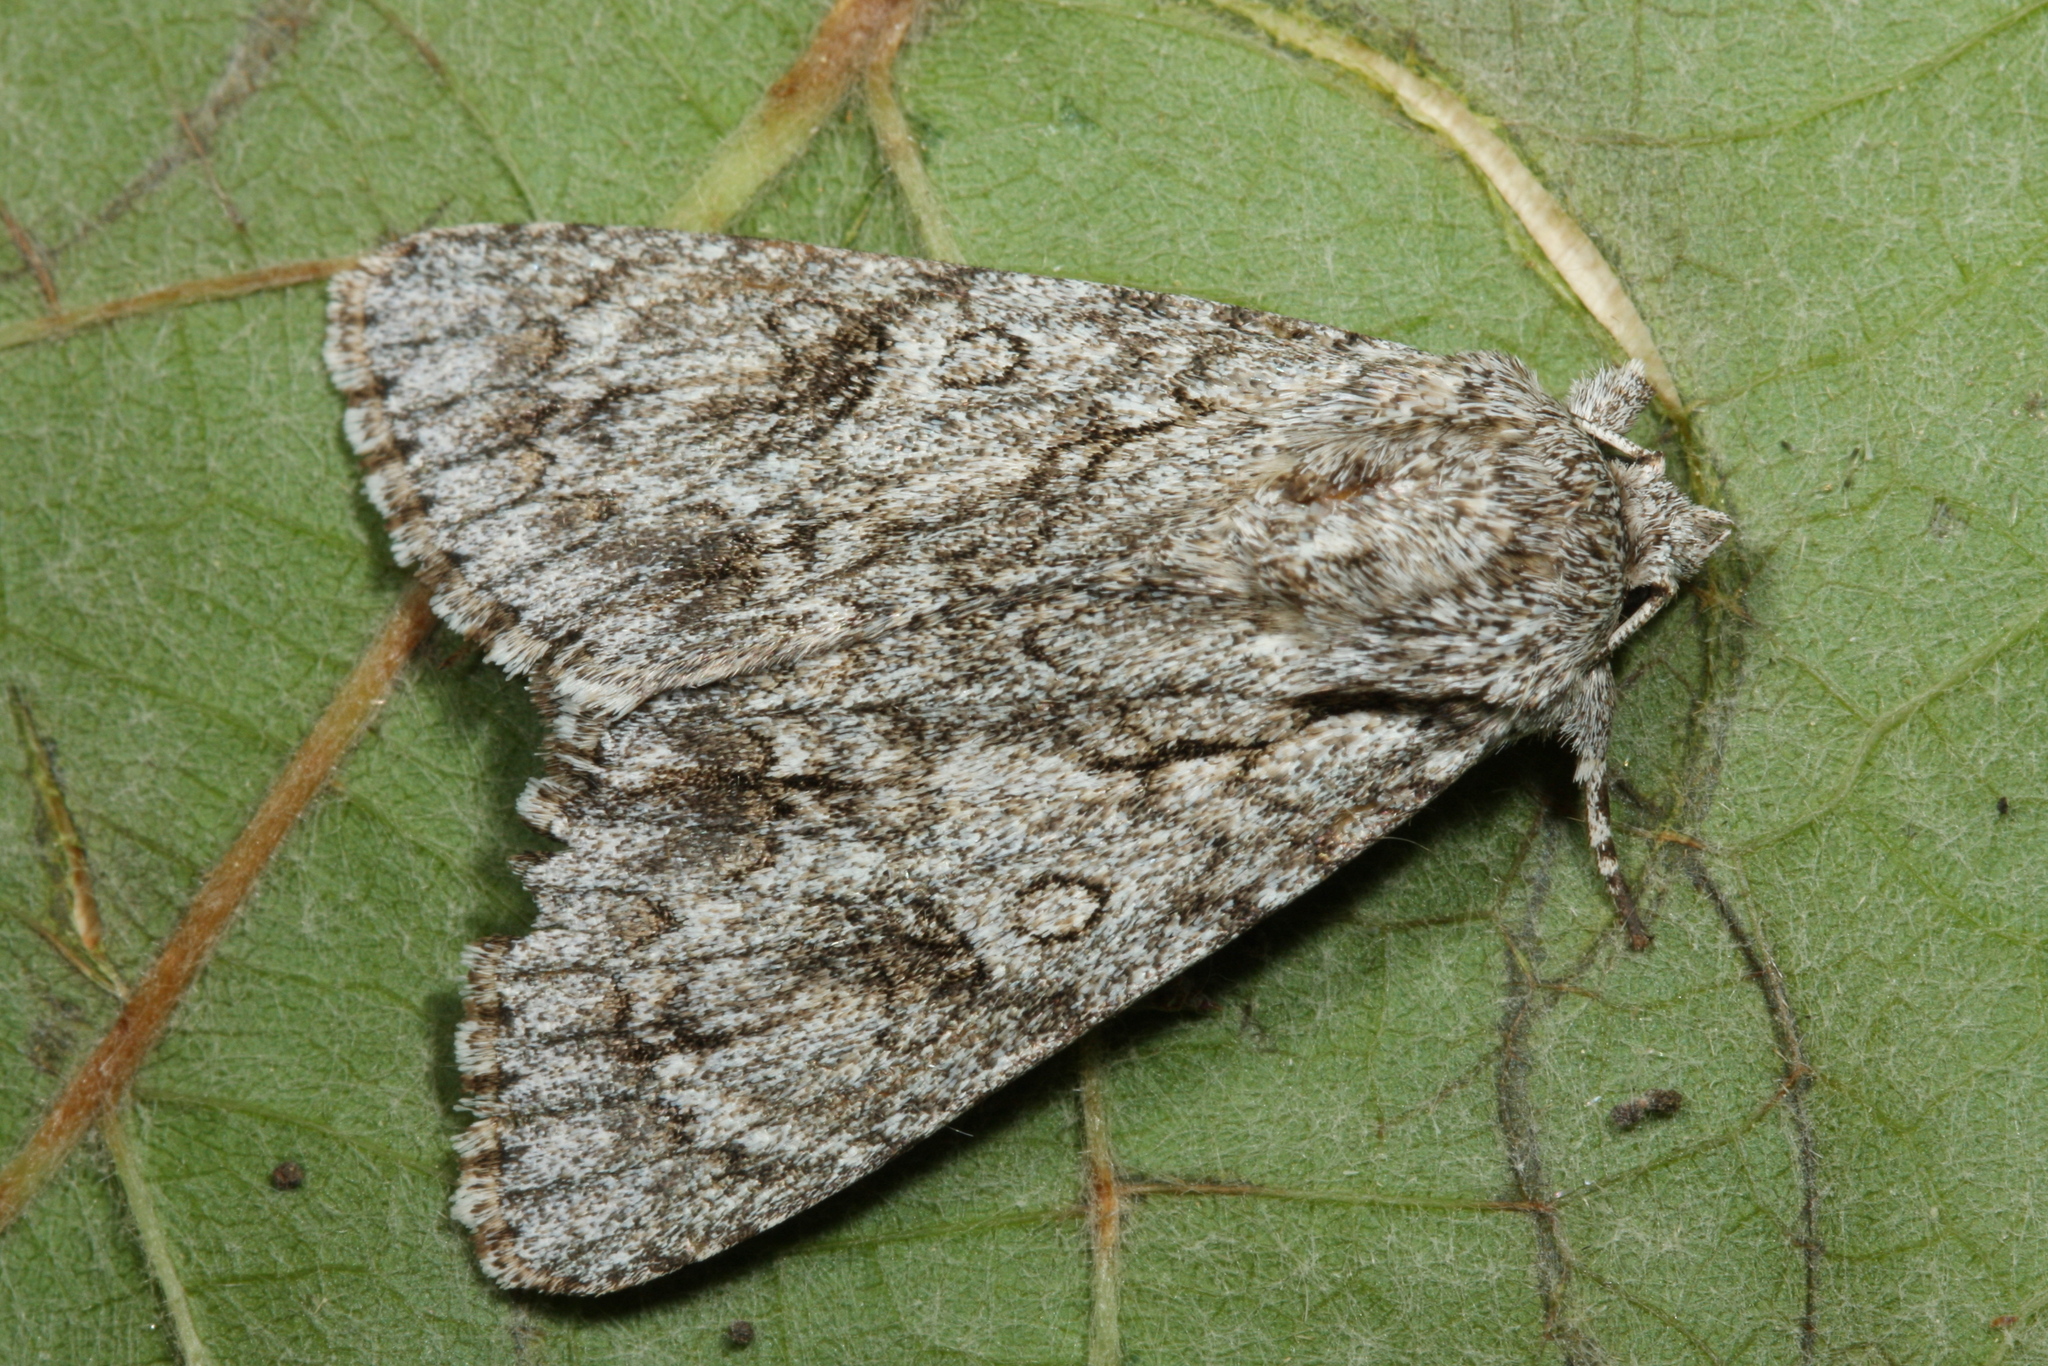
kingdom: Animalia
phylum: Arthropoda
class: Insecta
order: Lepidoptera
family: Noctuidae
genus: Acronicta
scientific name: Acronicta aceris
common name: Sycamore
